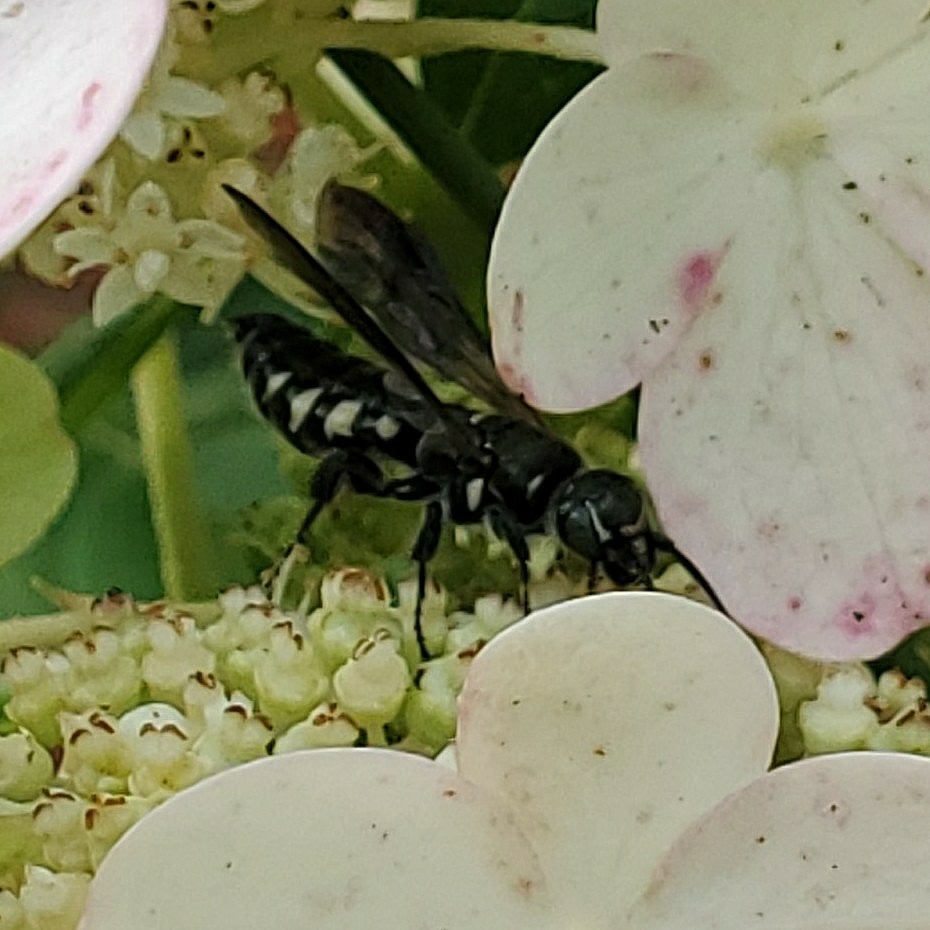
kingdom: Animalia
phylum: Arthropoda
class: Insecta
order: Hymenoptera
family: Tiphiidae
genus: Myzinum
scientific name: Myzinum obscurum
